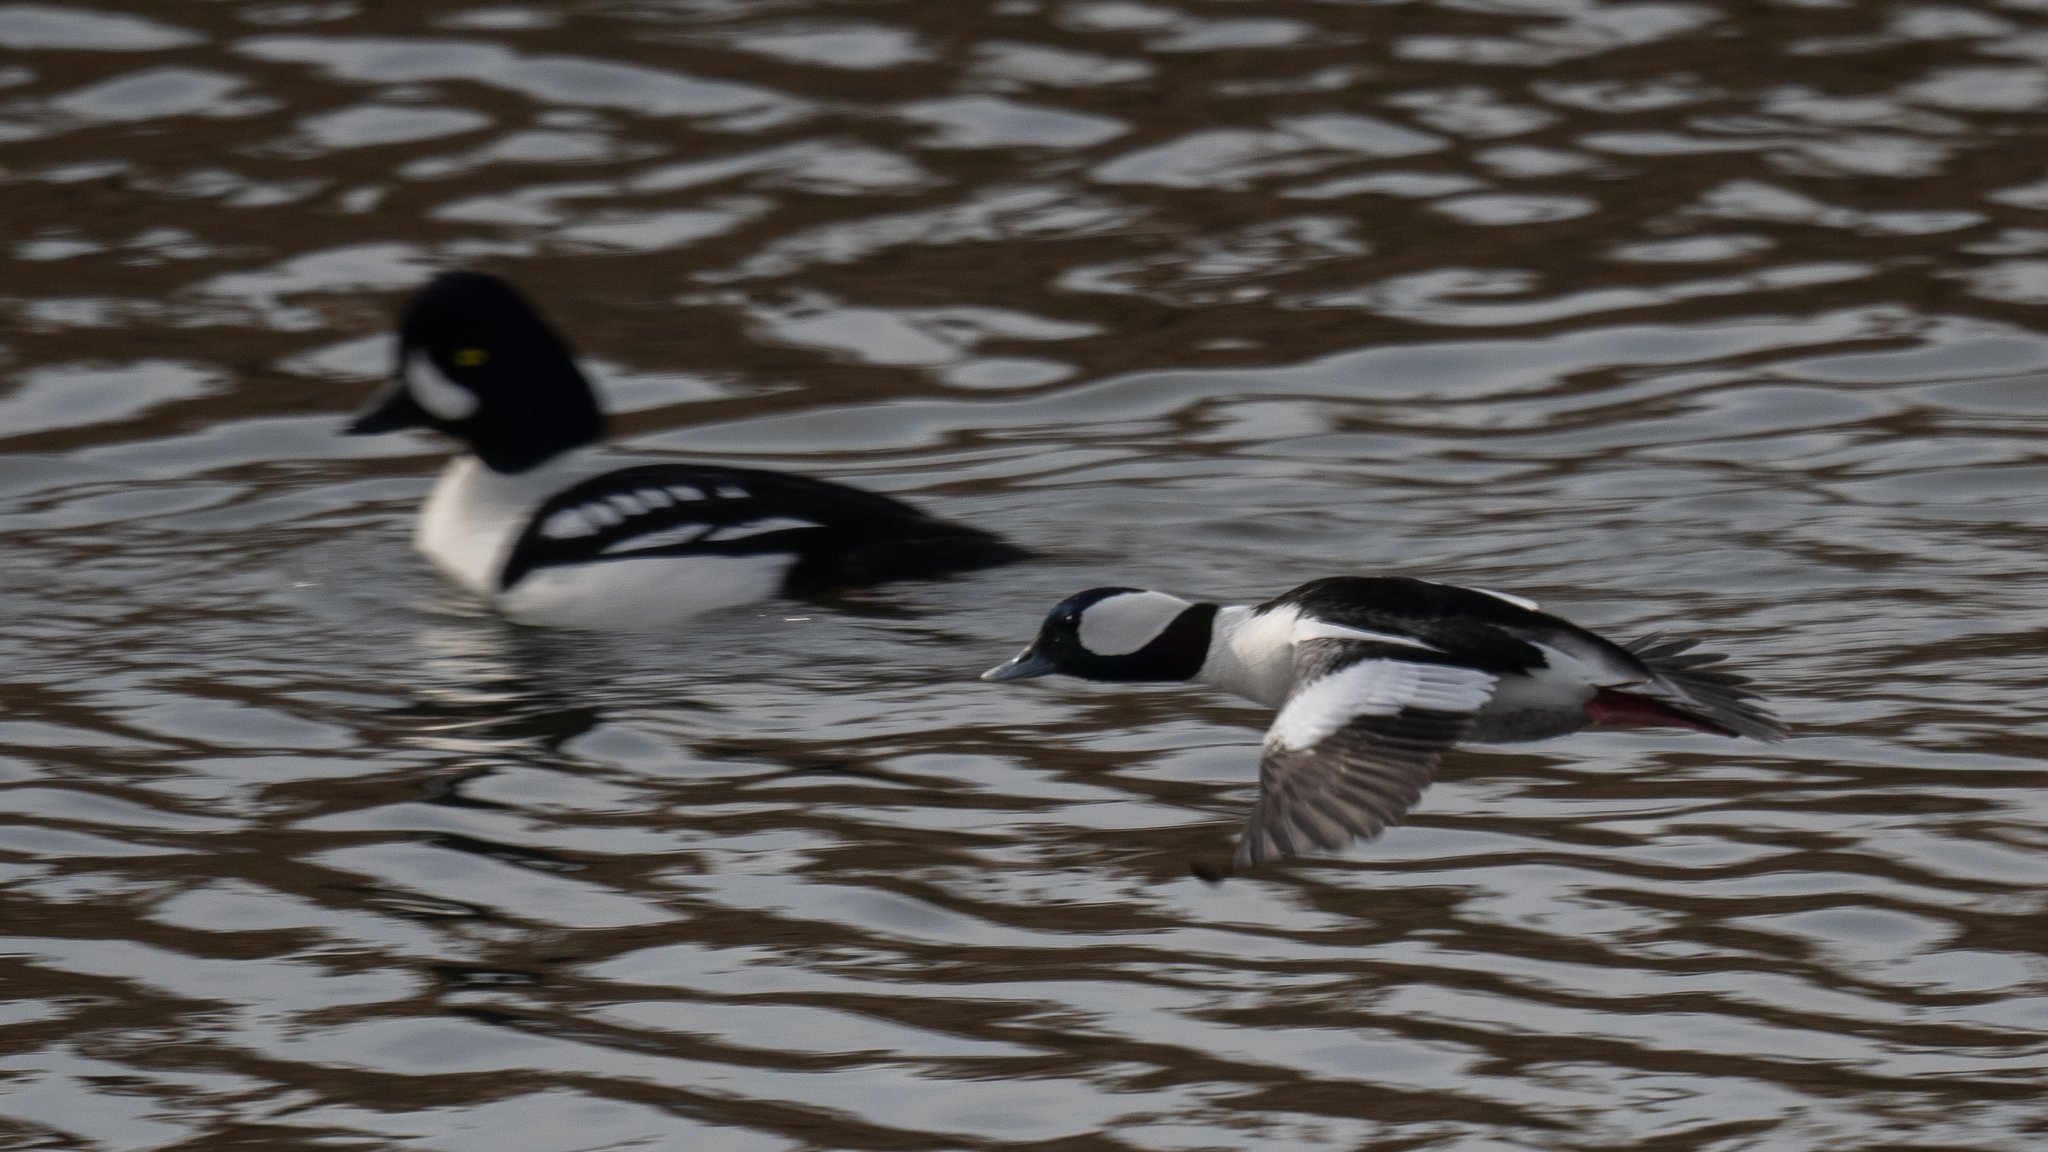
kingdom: Animalia
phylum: Chordata
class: Aves
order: Anseriformes
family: Anatidae
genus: Bucephala
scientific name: Bucephala albeola
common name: Bufflehead
